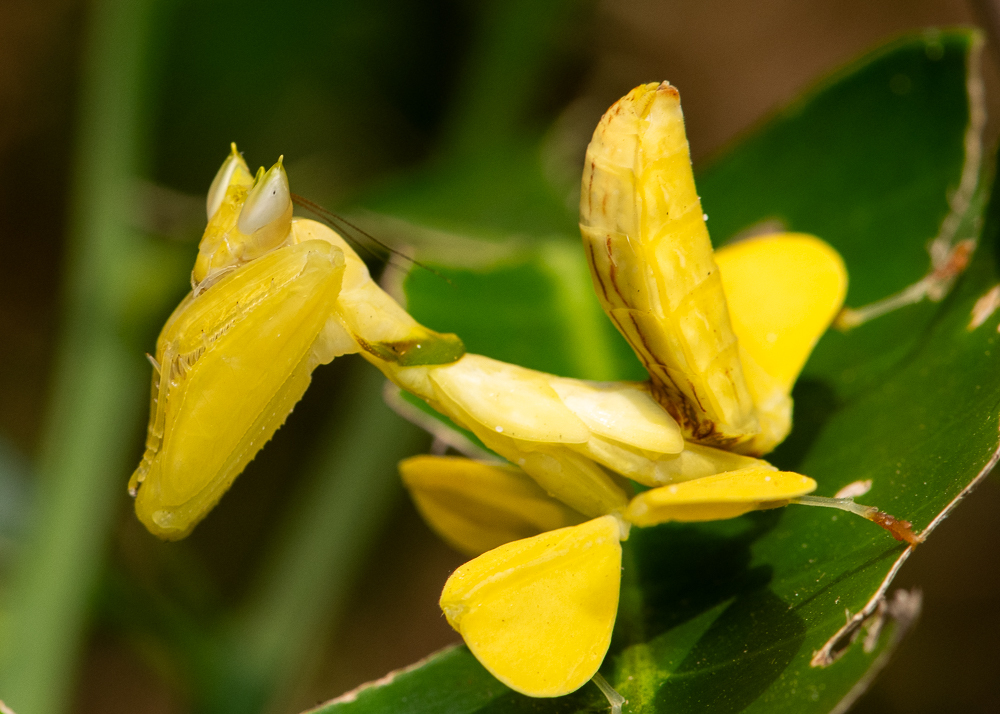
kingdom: Animalia
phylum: Arthropoda
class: Insecta
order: Mantodea
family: Hymenopodidae
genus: Hymenopus
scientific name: Hymenopus coronatus
